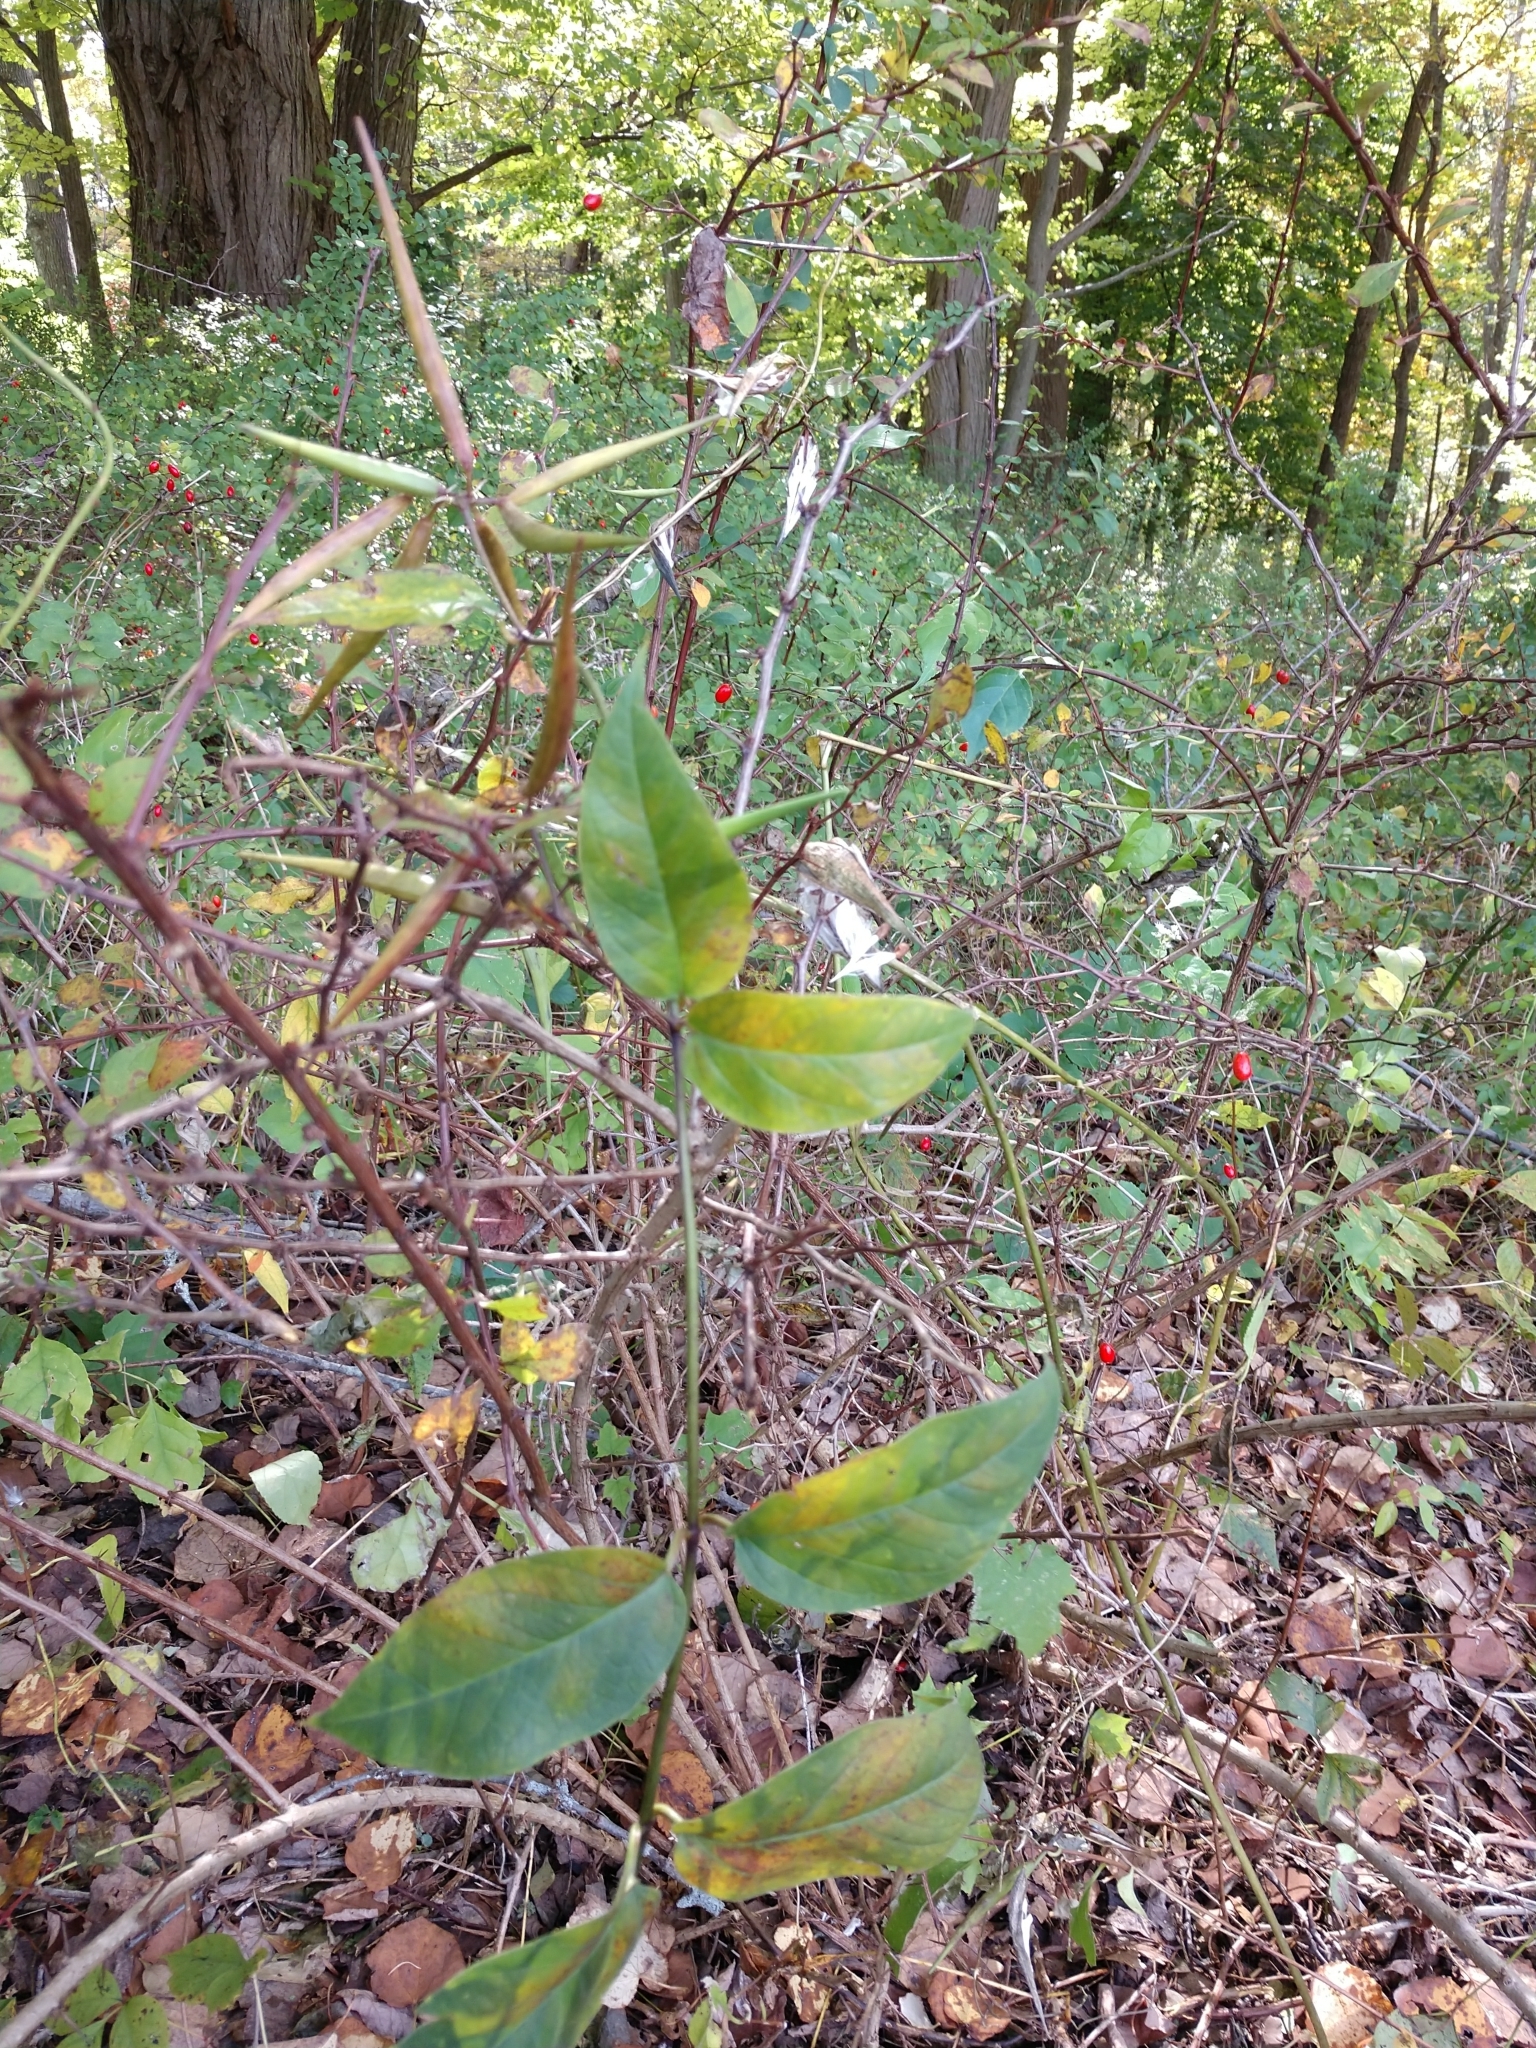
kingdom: Plantae
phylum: Tracheophyta
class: Magnoliopsida
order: Gentianales
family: Apocynaceae
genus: Vincetoxicum
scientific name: Vincetoxicum nigrum
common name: Black swallow-wort
